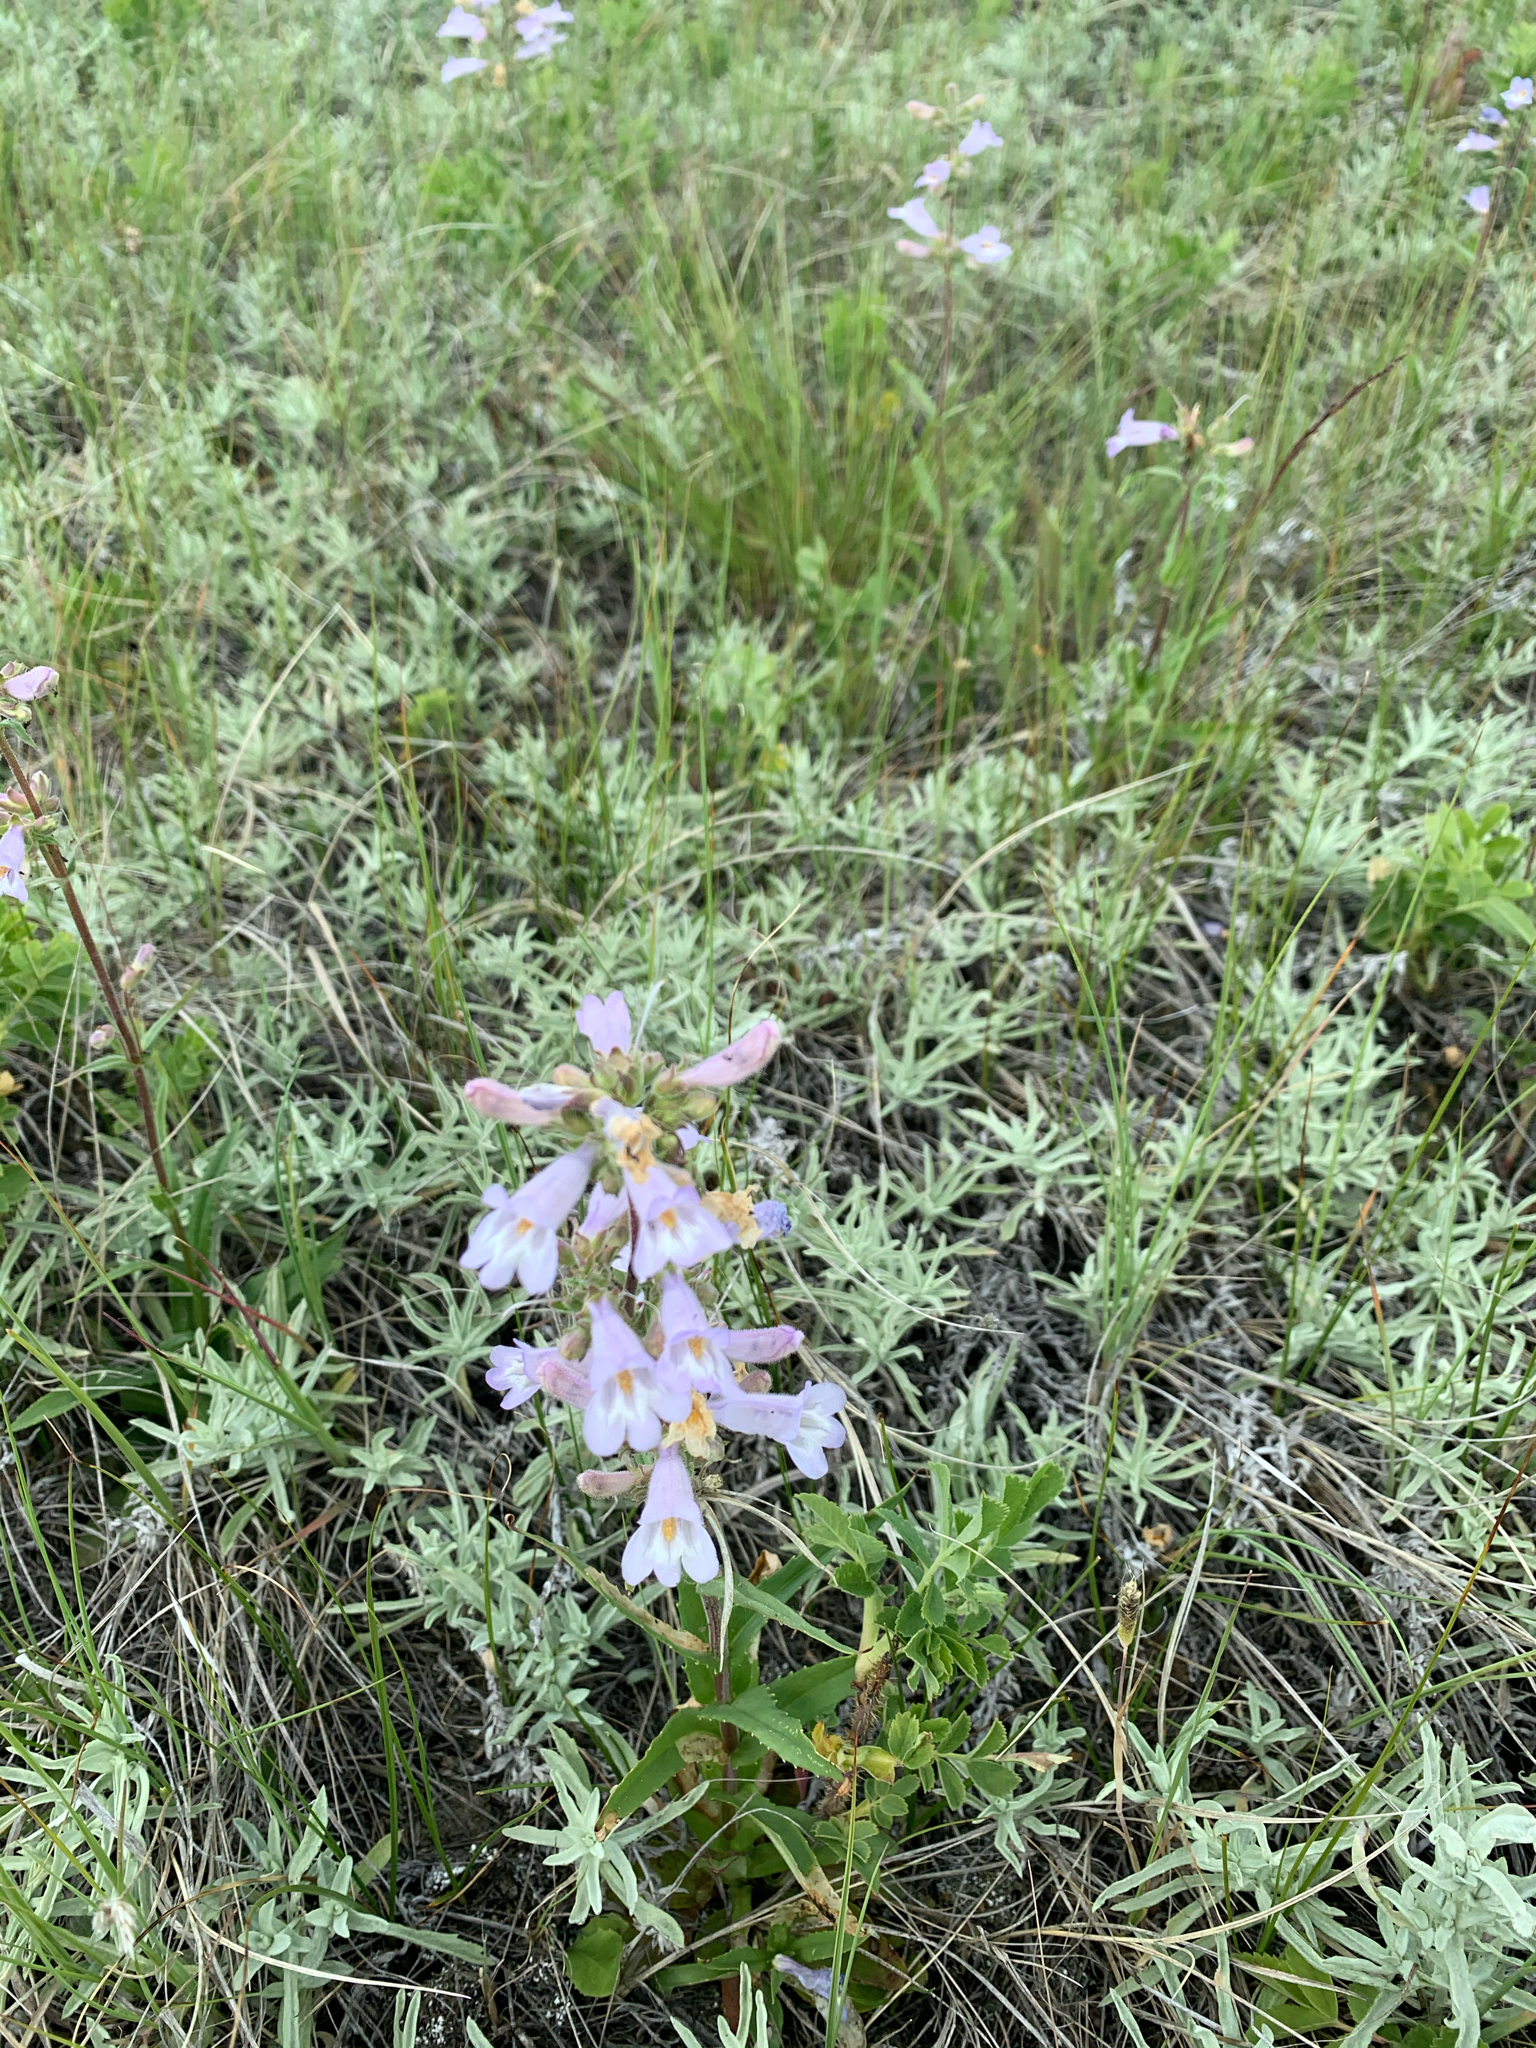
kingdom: Plantae
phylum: Tracheophyta
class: Magnoliopsida
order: Lamiales
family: Plantaginaceae
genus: Penstemon
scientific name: Penstemon gracilis
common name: Slender beardtongue
